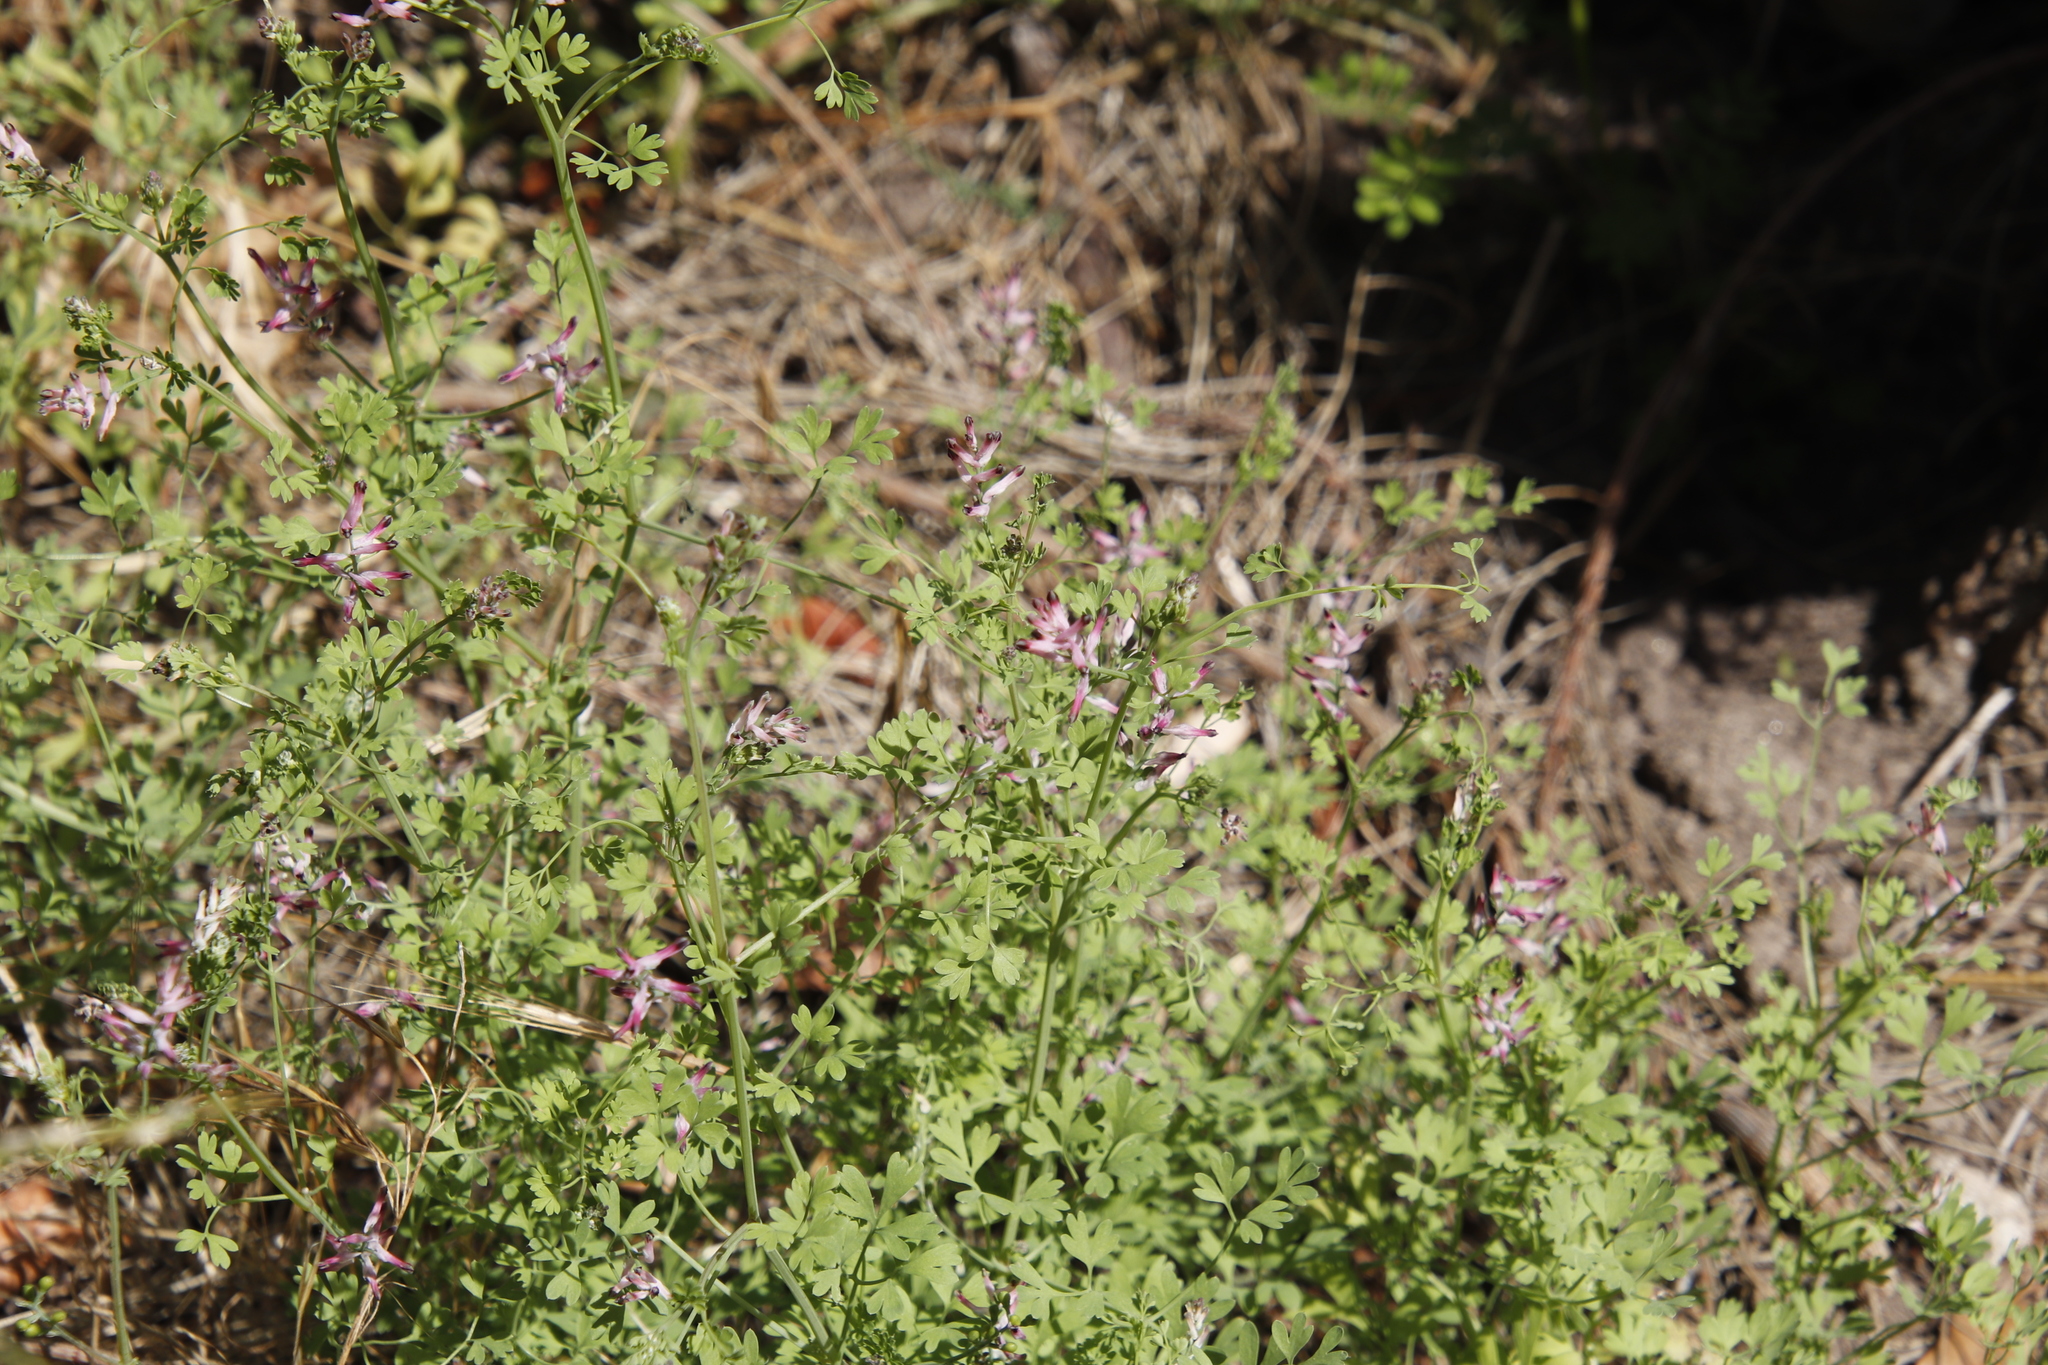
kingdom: Plantae
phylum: Tracheophyta
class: Magnoliopsida
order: Ranunculales
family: Papaveraceae
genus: Fumaria
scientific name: Fumaria muralis
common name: Common ramping-fumitory
